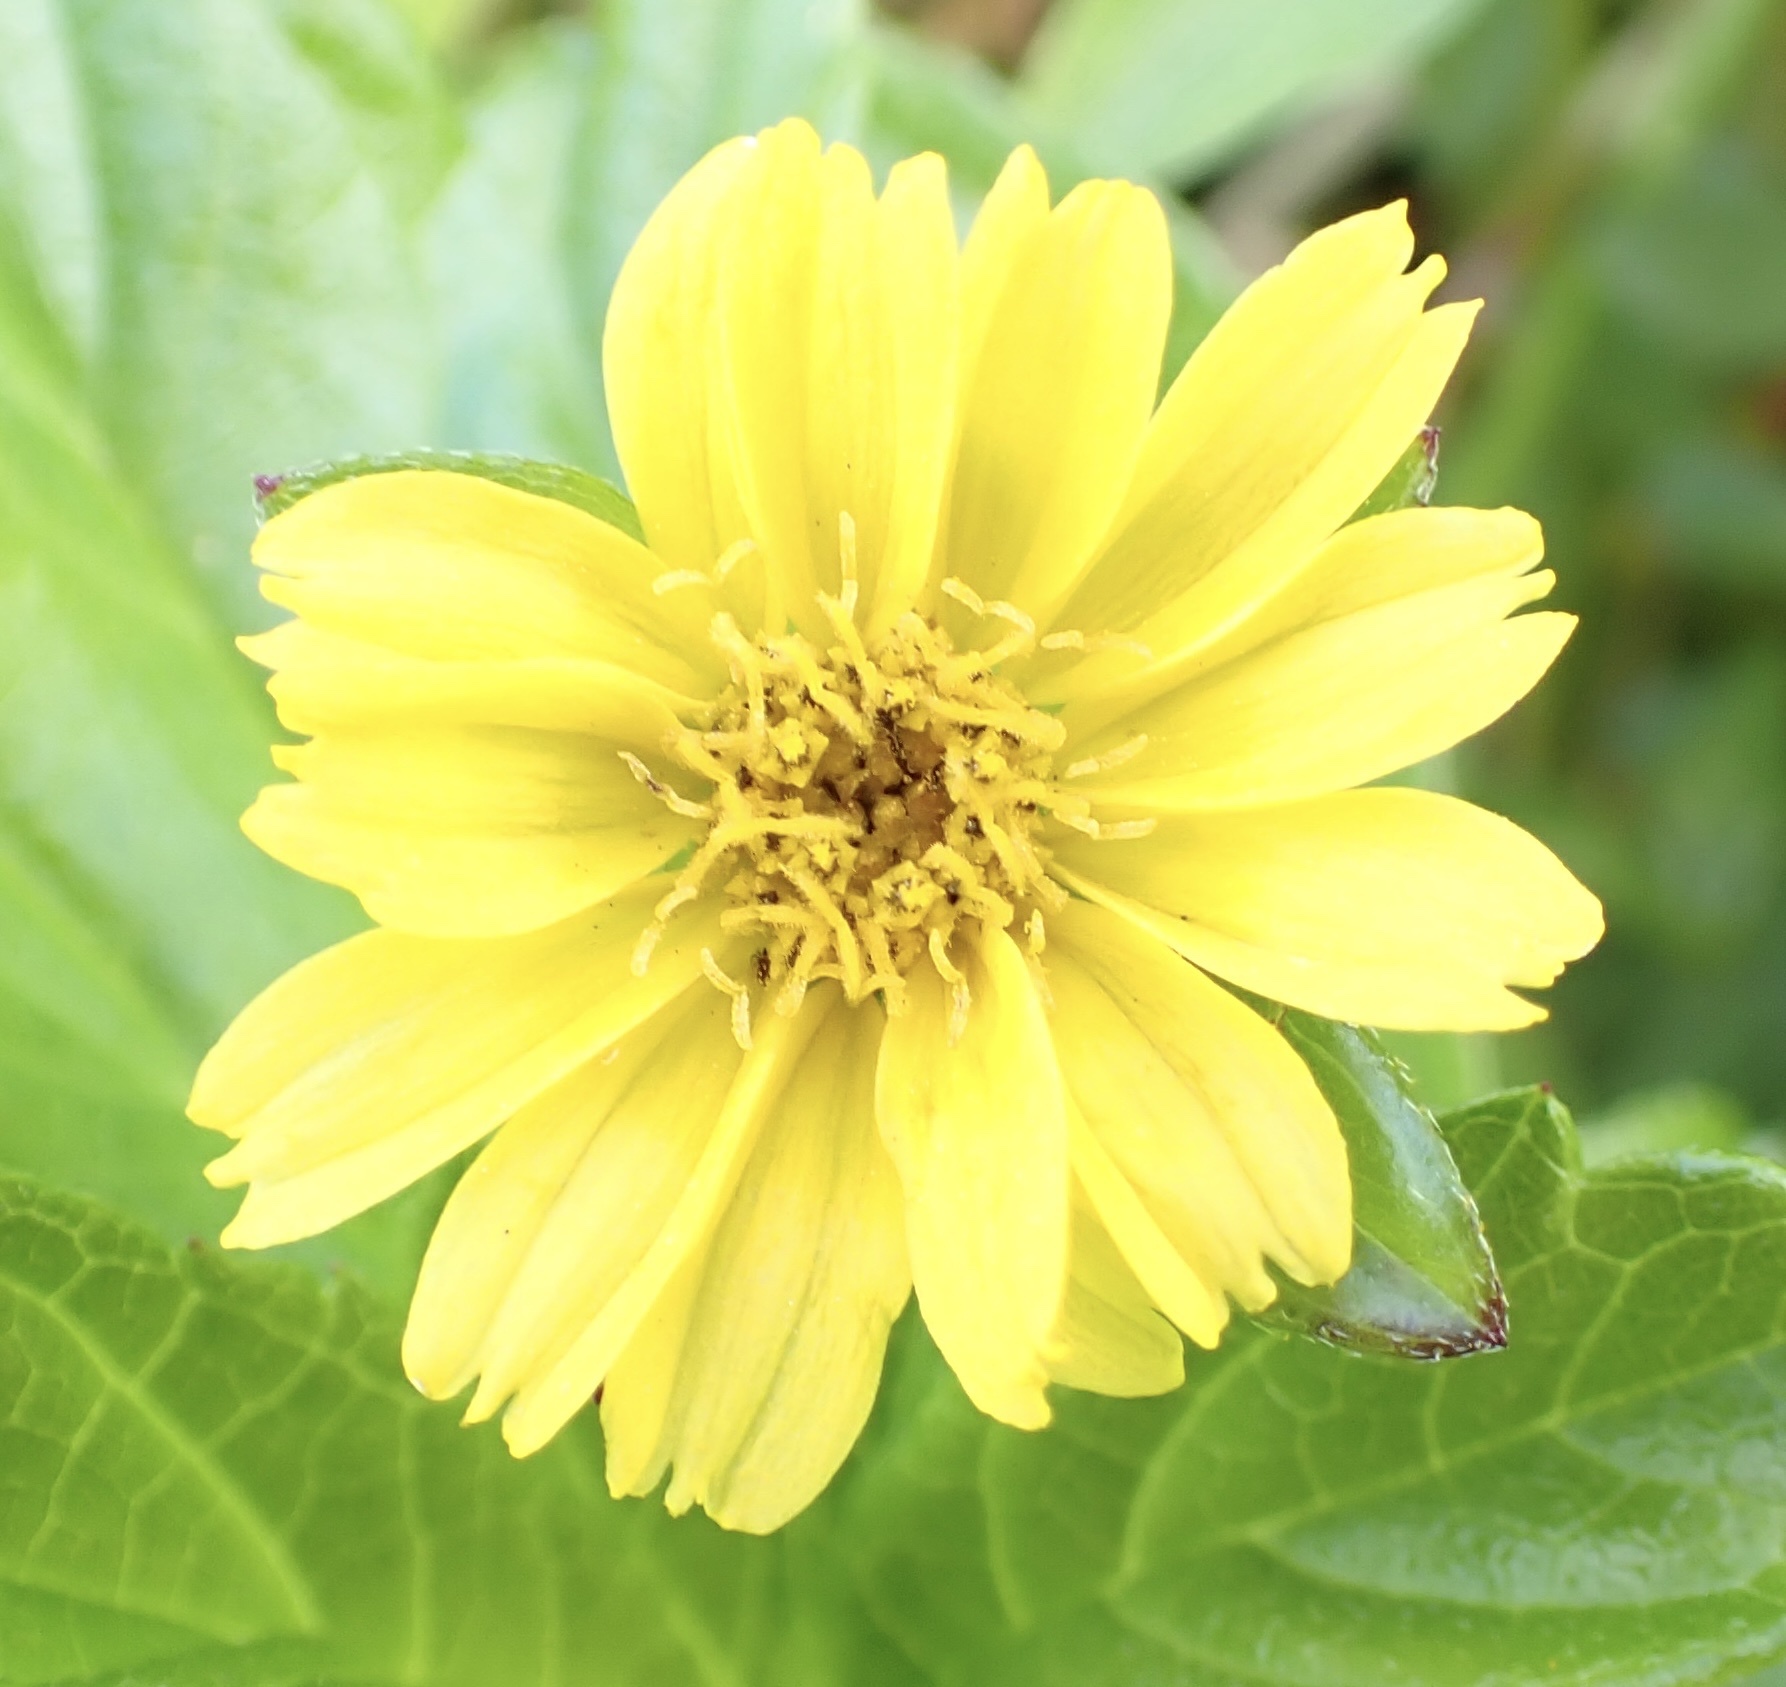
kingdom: Plantae
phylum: Tracheophyta
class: Magnoliopsida
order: Asterales
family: Asteraceae
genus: Sphagneticola
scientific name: Sphagneticola trilobata
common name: Bay biscayne creeping-oxeye
